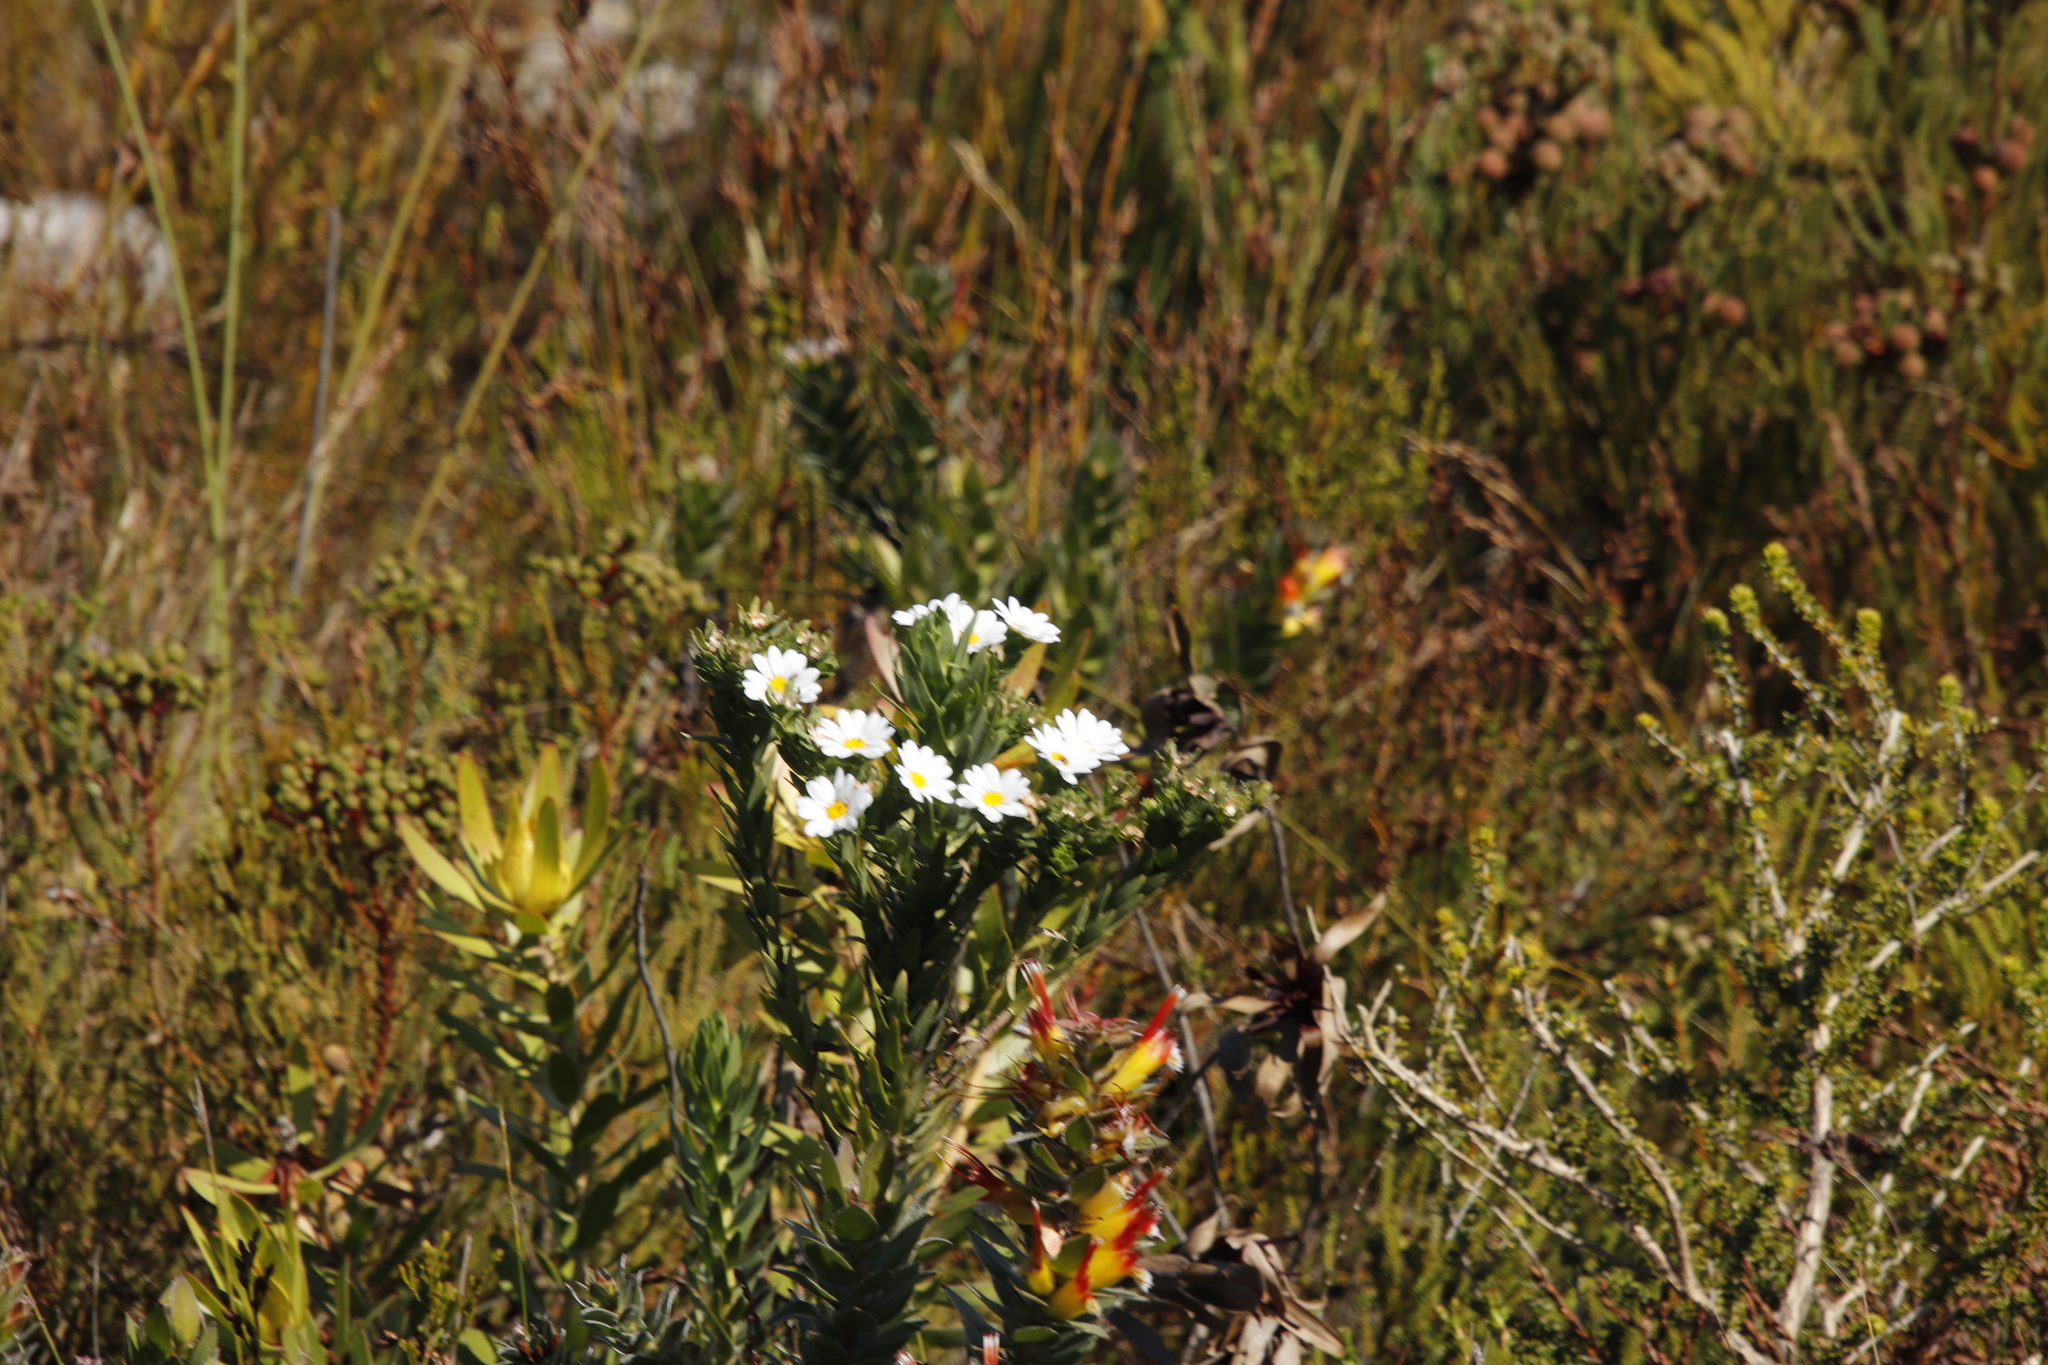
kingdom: Plantae
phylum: Tracheophyta
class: Magnoliopsida
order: Asterales
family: Asteraceae
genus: Osmitopsis
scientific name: Osmitopsis asteriscoides
